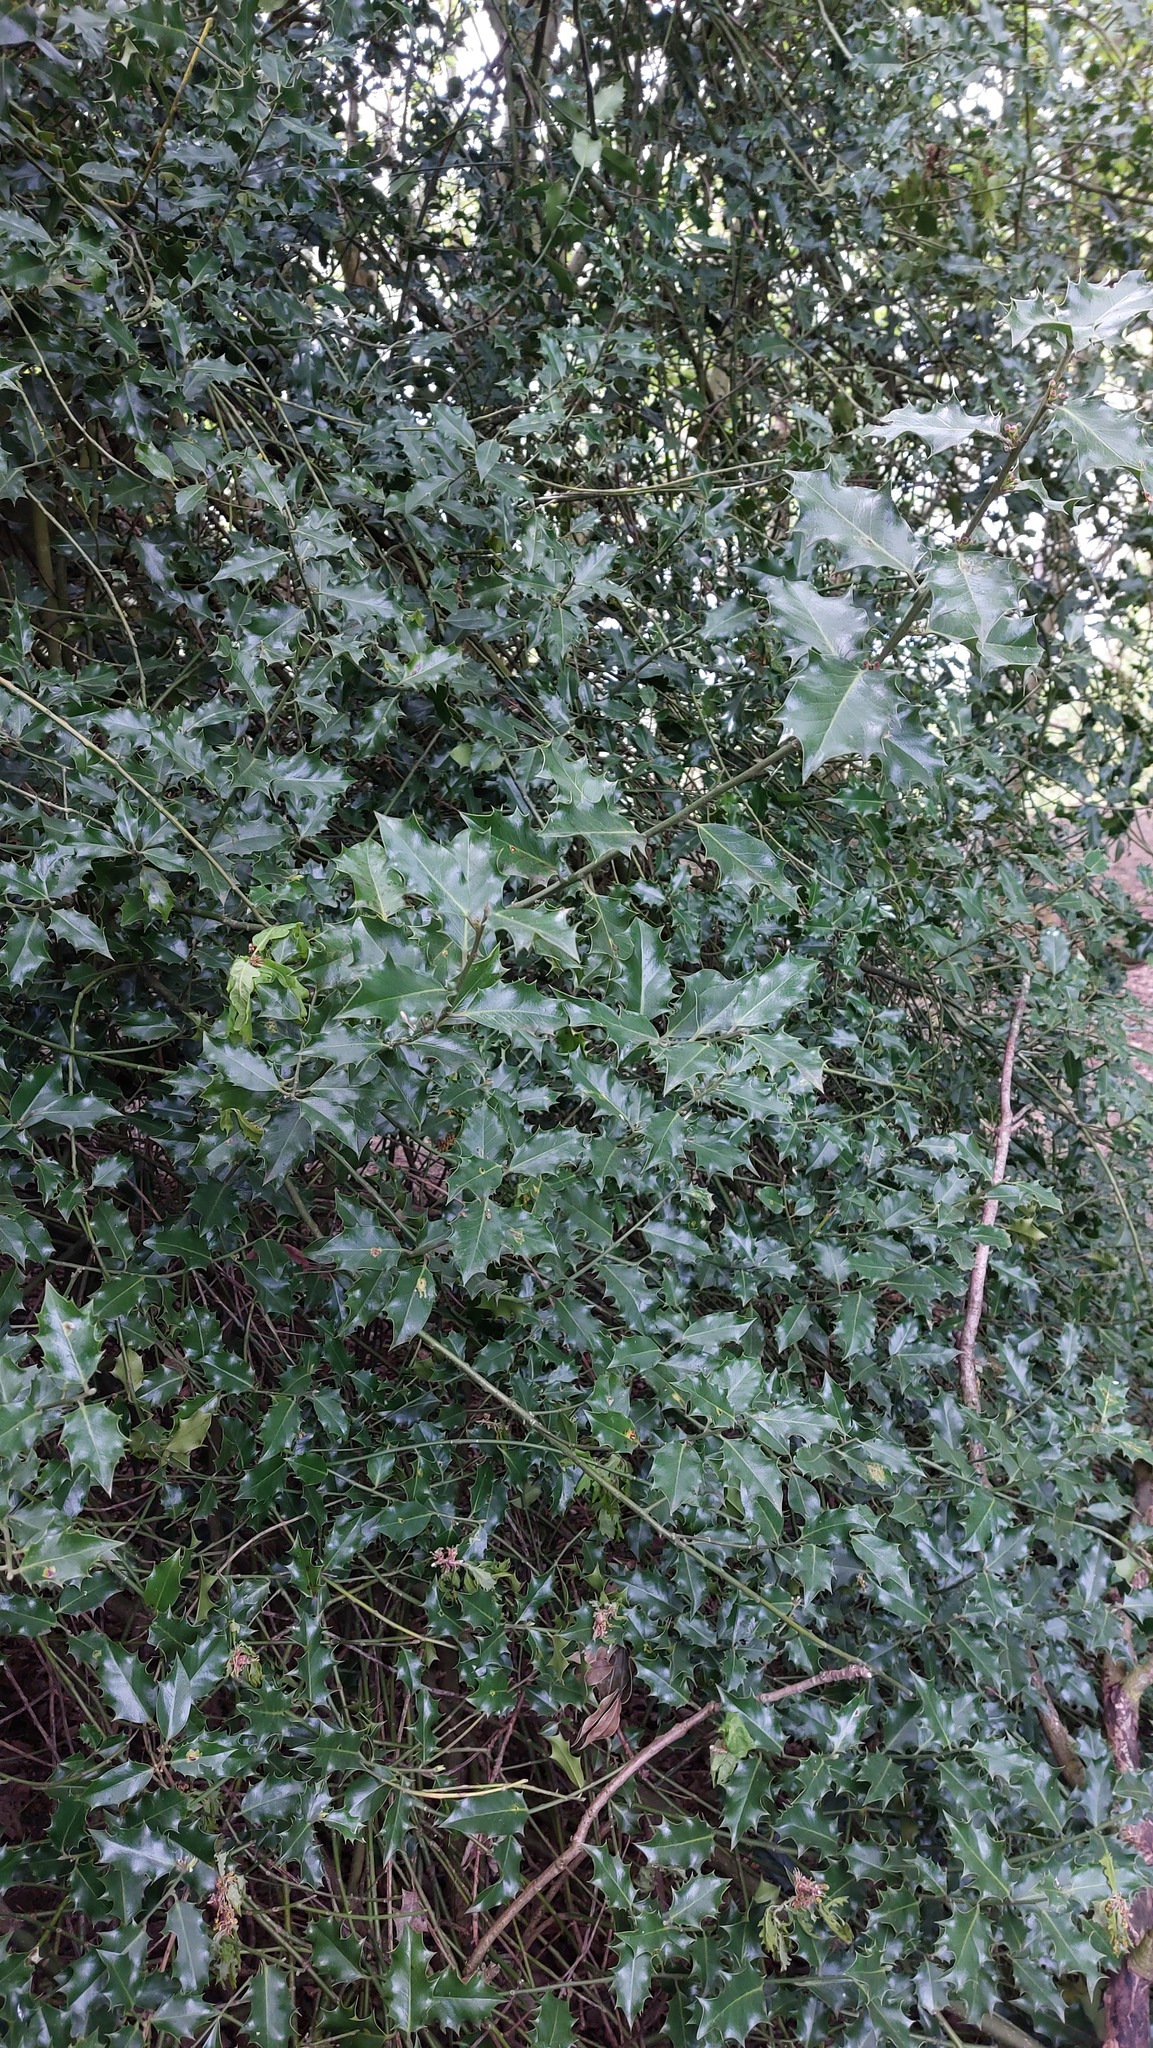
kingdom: Plantae
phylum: Tracheophyta
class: Magnoliopsida
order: Aquifoliales
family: Aquifoliaceae
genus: Ilex
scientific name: Ilex aquifolium
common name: English holly
